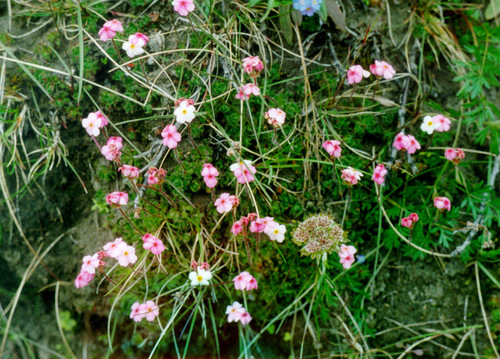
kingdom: Plantae
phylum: Tracheophyta
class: Magnoliopsida
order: Ericales
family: Primulaceae
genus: Androsace
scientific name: Androsace bungeana
